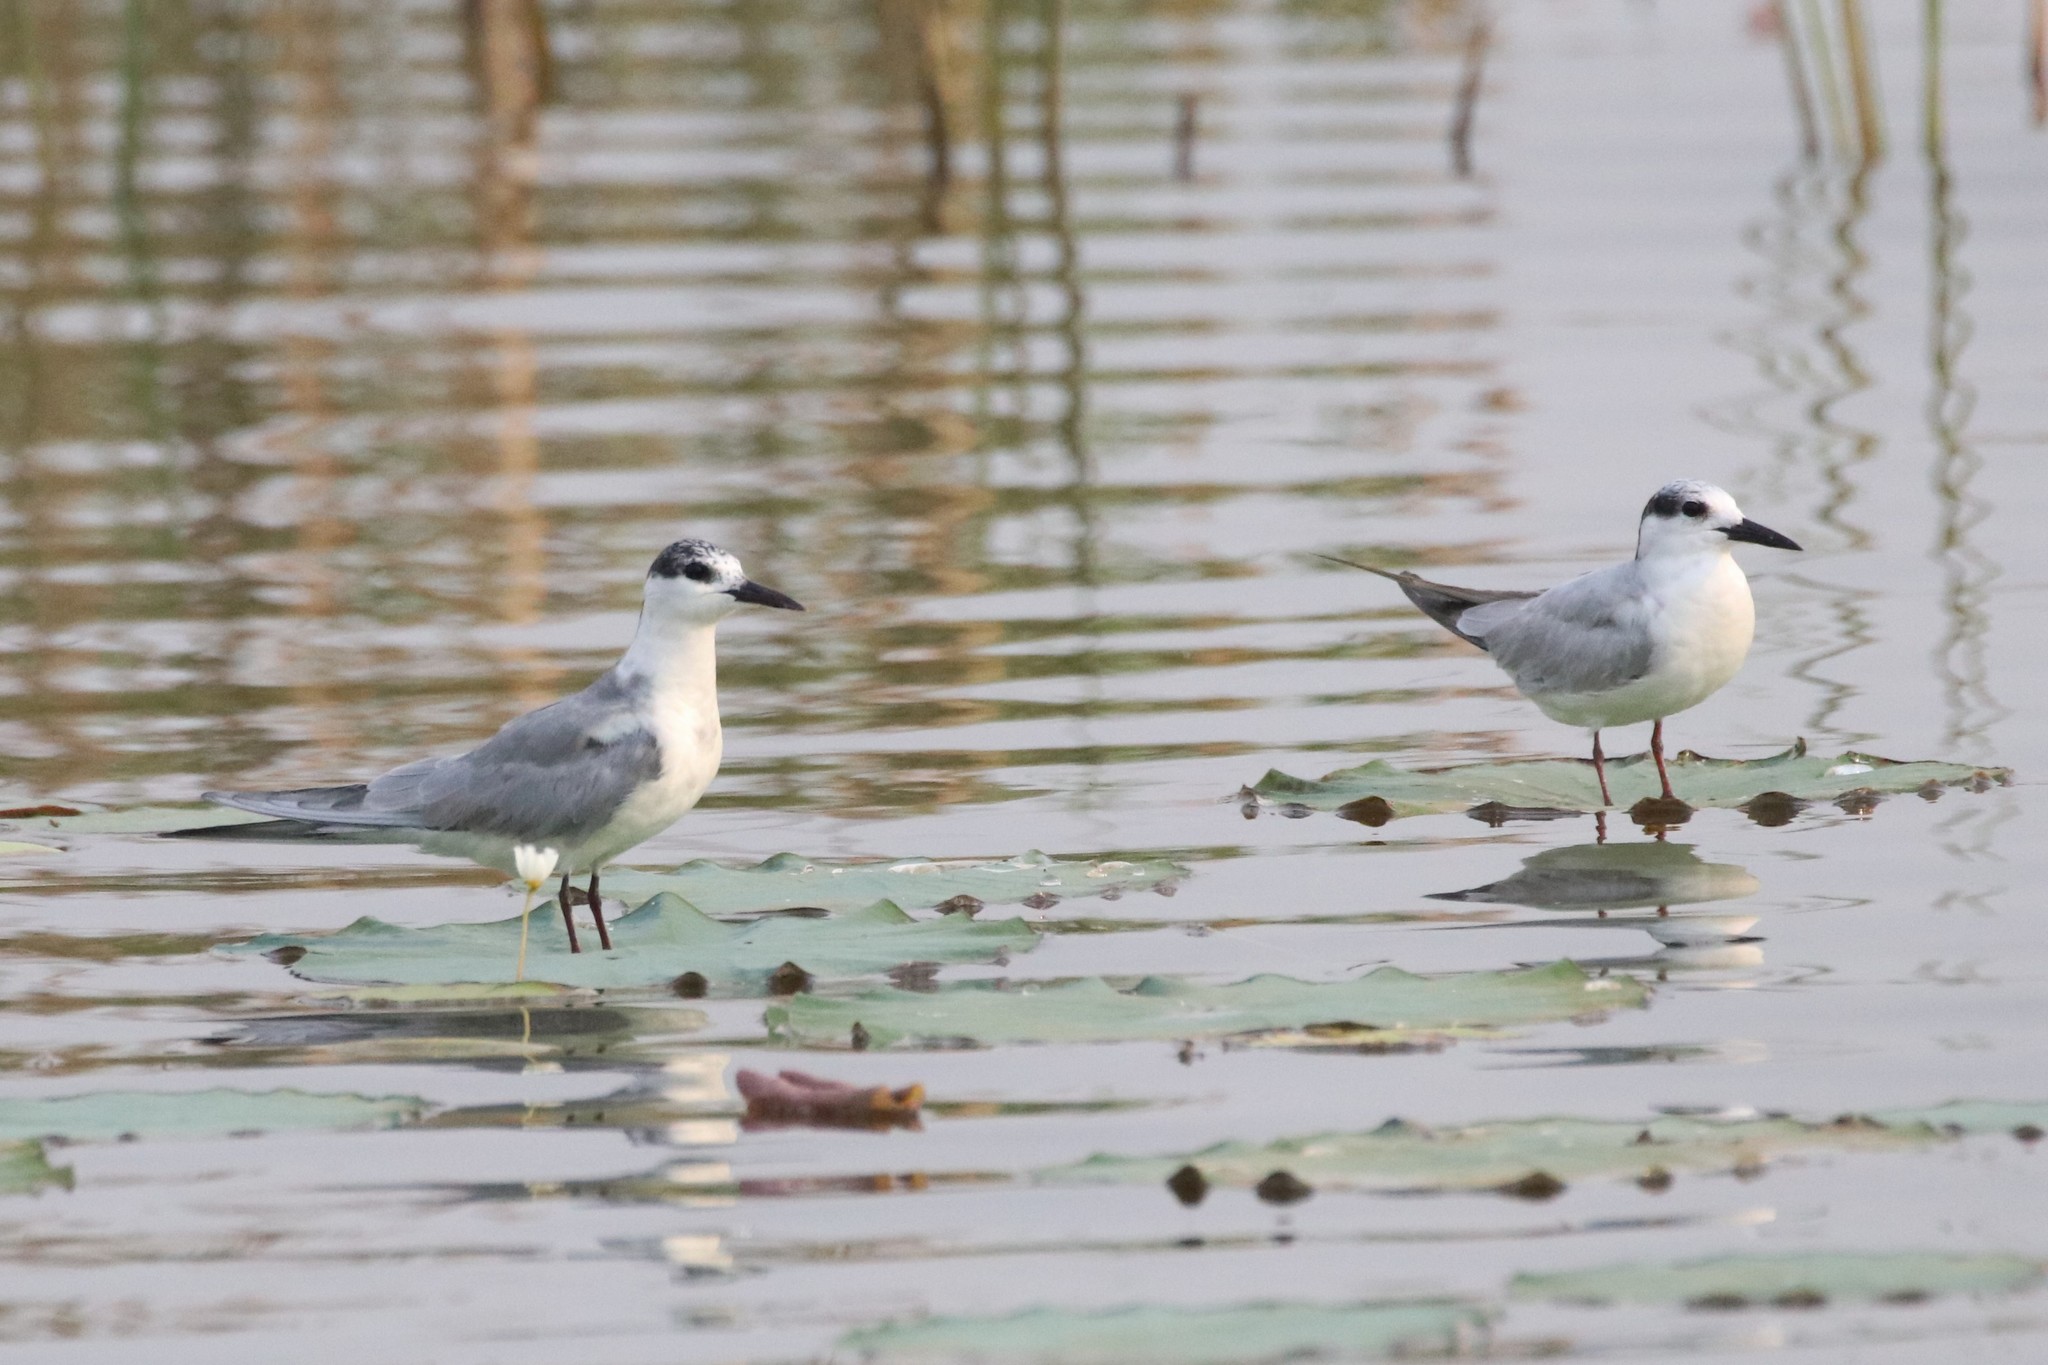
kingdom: Animalia
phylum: Chordata
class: Aves
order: Charadriiformes
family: Laridae
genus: Chlidonias
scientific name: Chlidonias hybrida
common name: Whiskered tern
